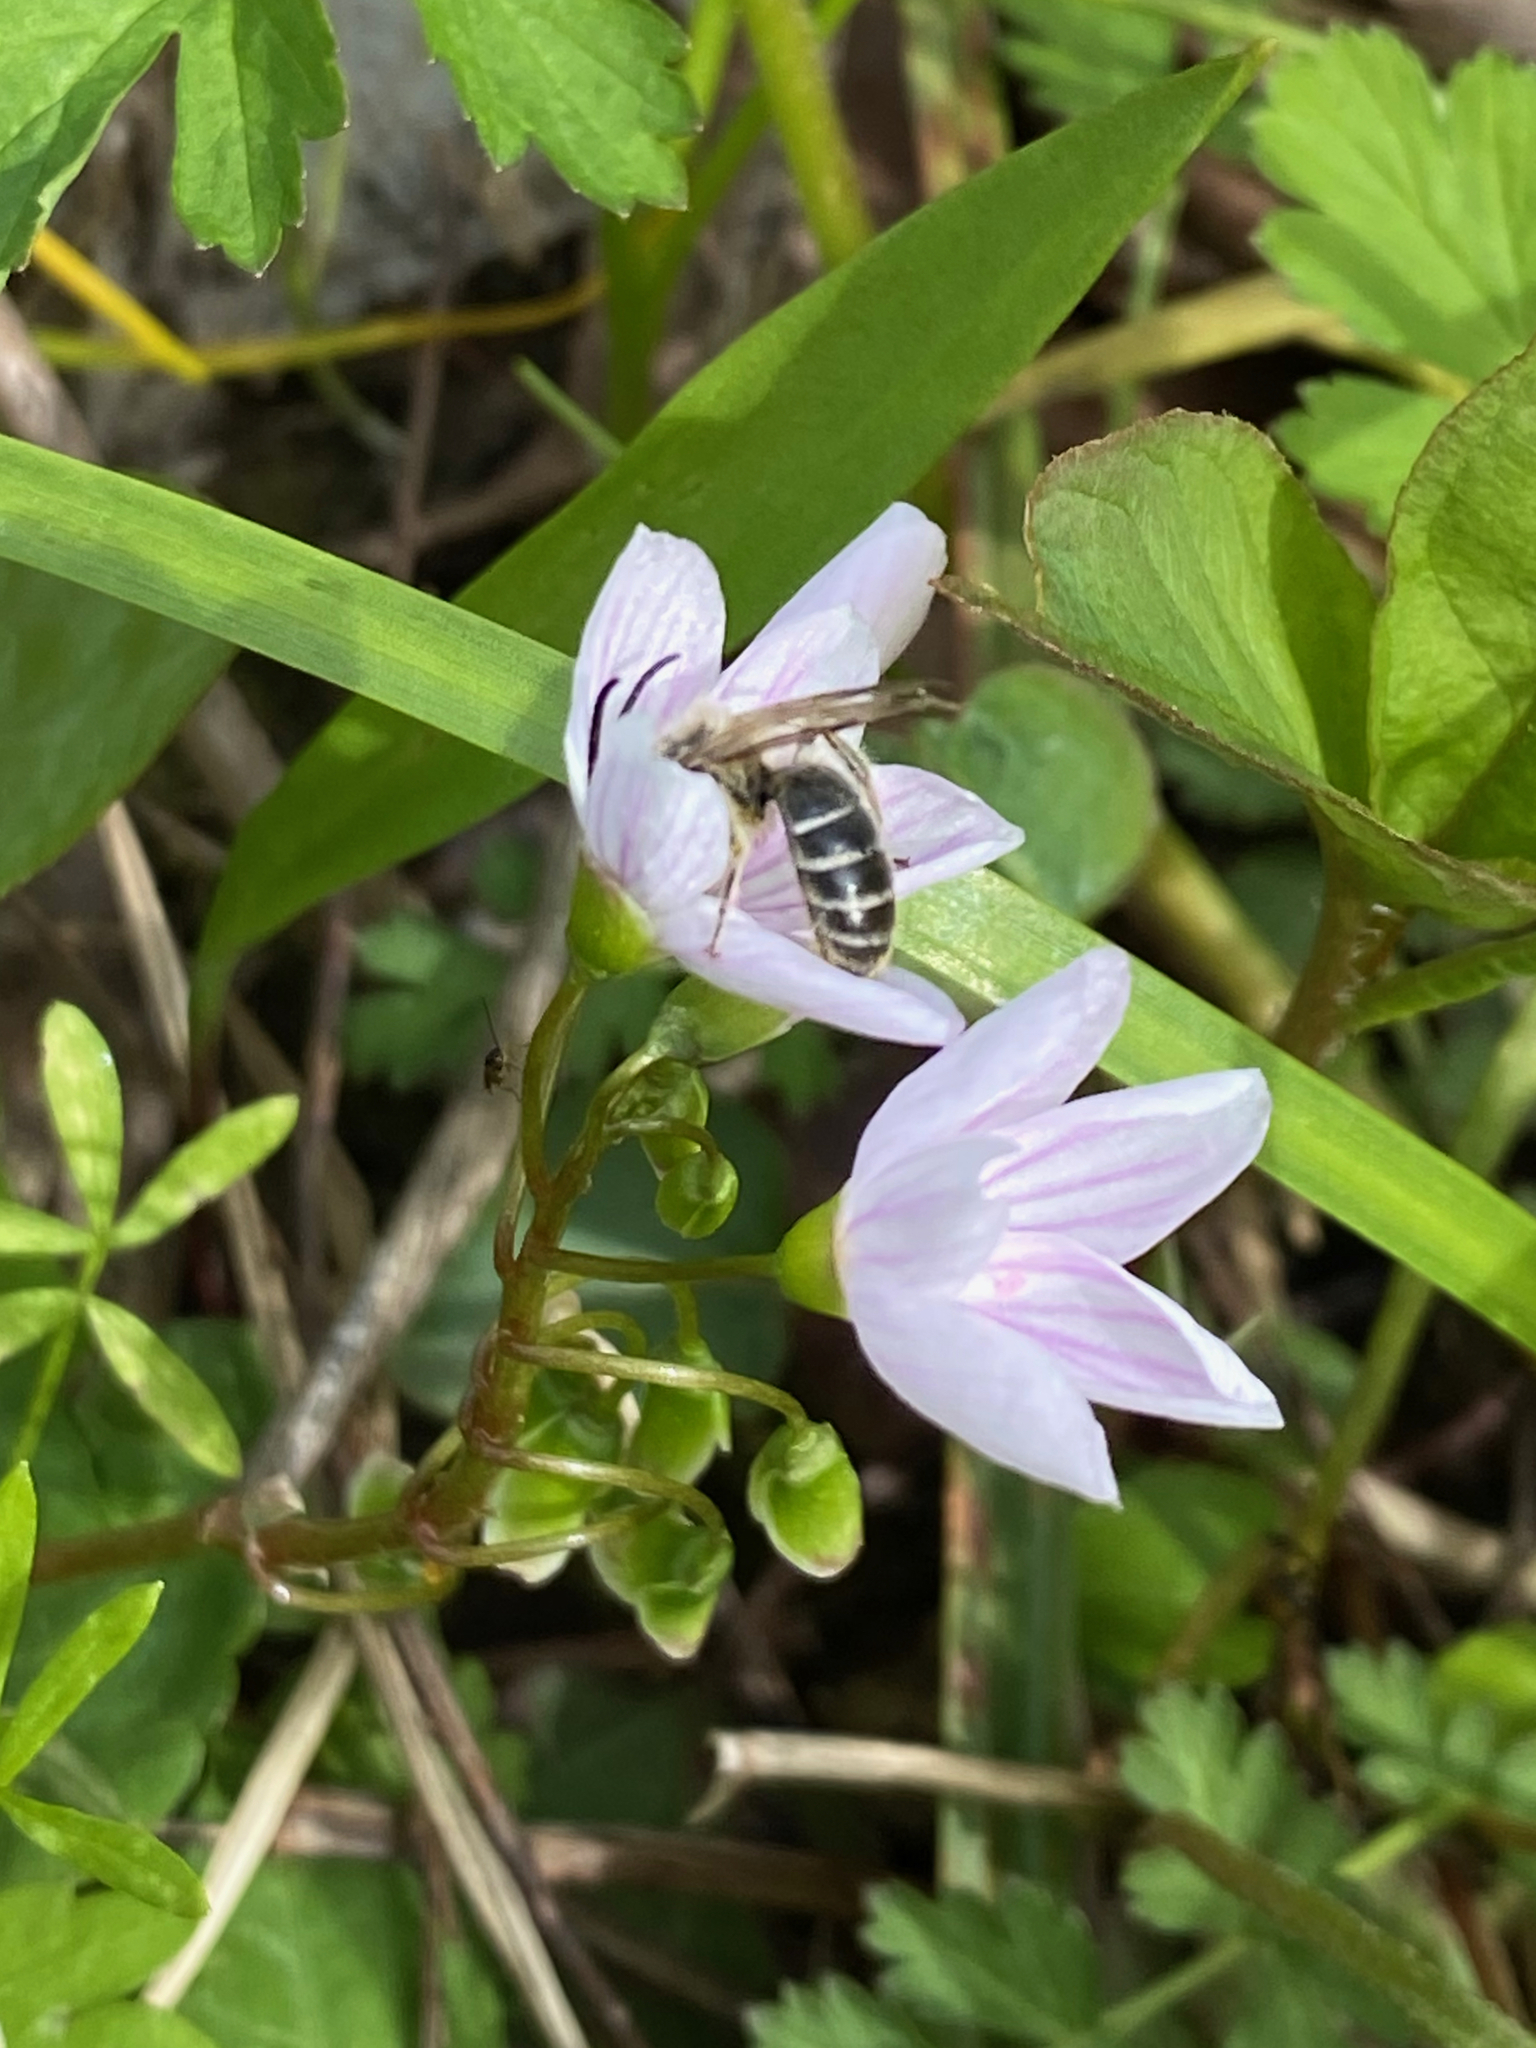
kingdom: Plantae
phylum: Tracheophyta
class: Magnoliopsida
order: Caryophyllales
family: Montiaceae
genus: Claytonia
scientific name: Claytonia virginica
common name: Virginia springbeauty
